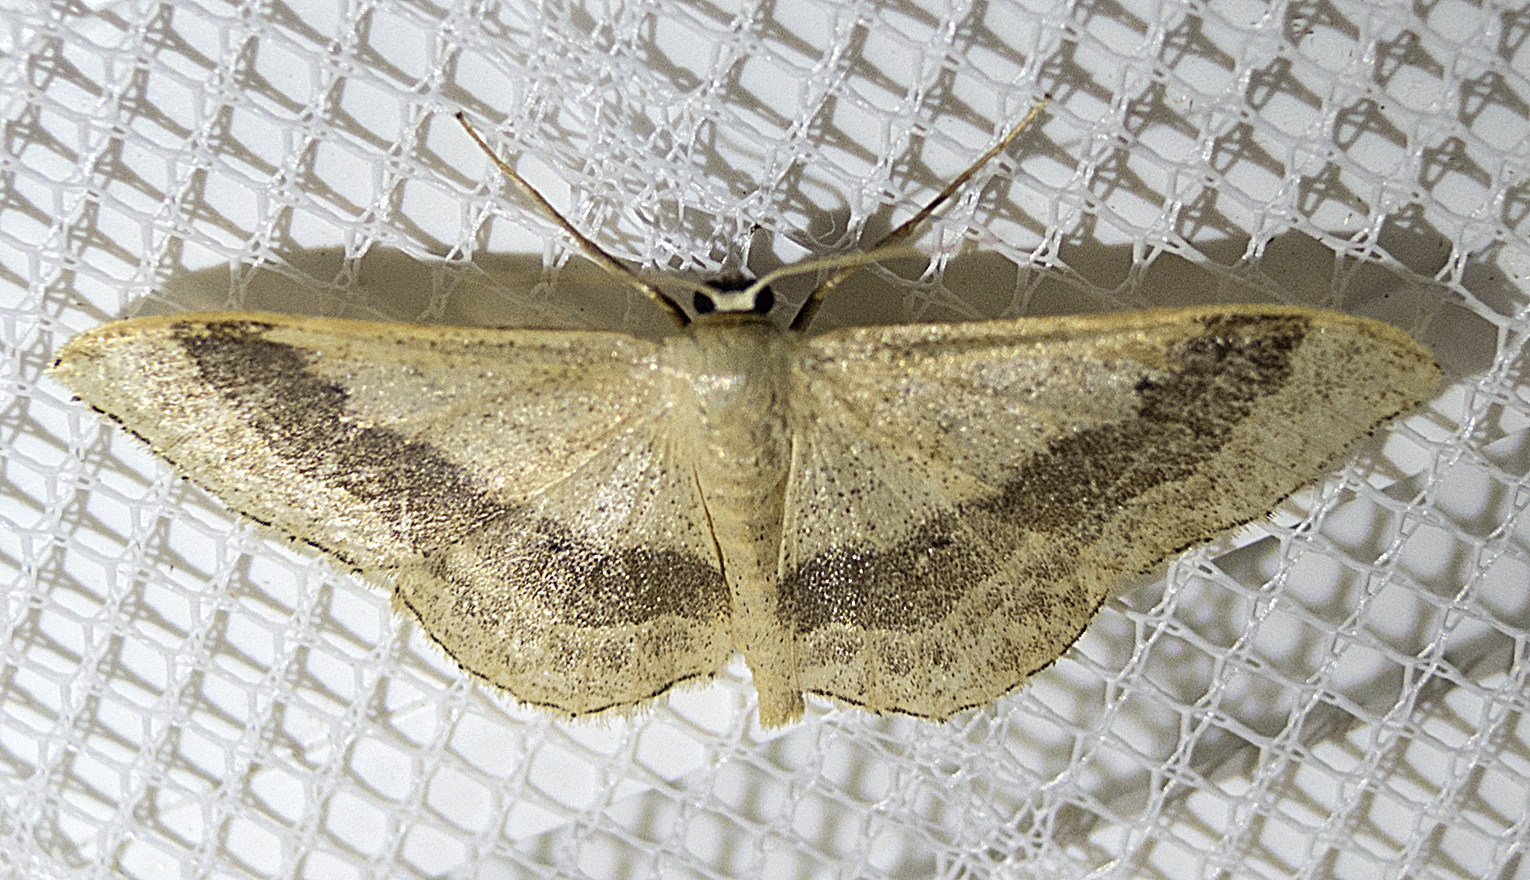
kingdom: Animalia
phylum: Arthropoda
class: Insecta
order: Lepidoptera
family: Geometridae
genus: Idaea
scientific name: Idaea aversata
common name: Riband wave
